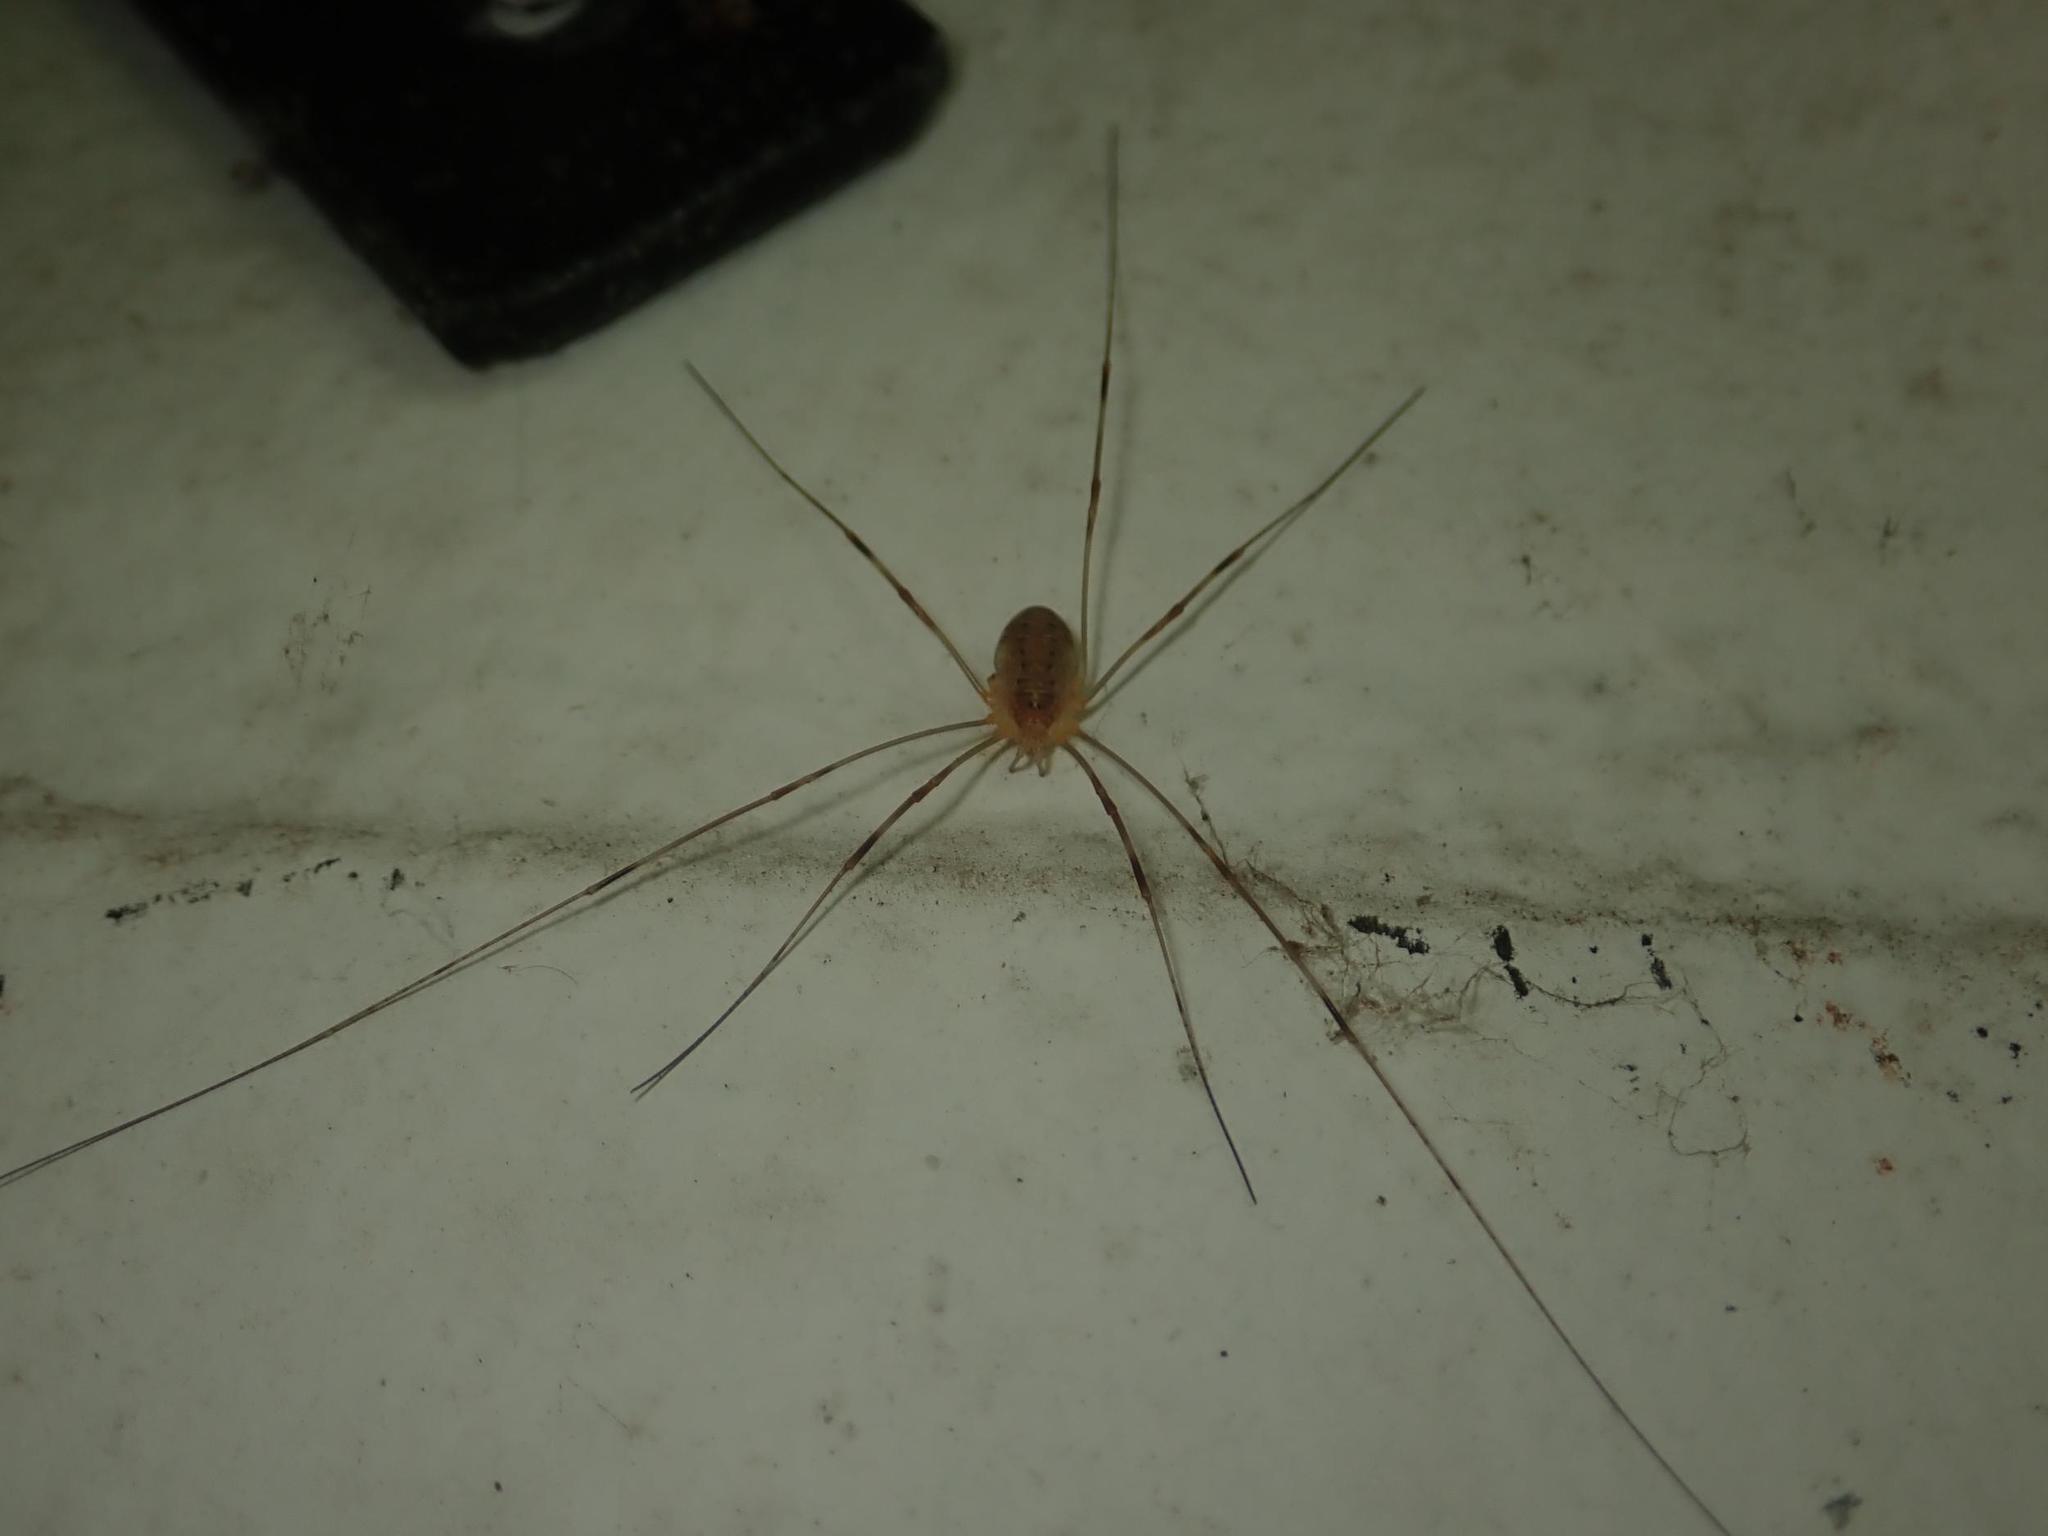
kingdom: Animalia
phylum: Arthropoda
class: Arachnida
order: Opiliones
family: Phalangiidae
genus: Opilio
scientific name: Opilio canestrinii
